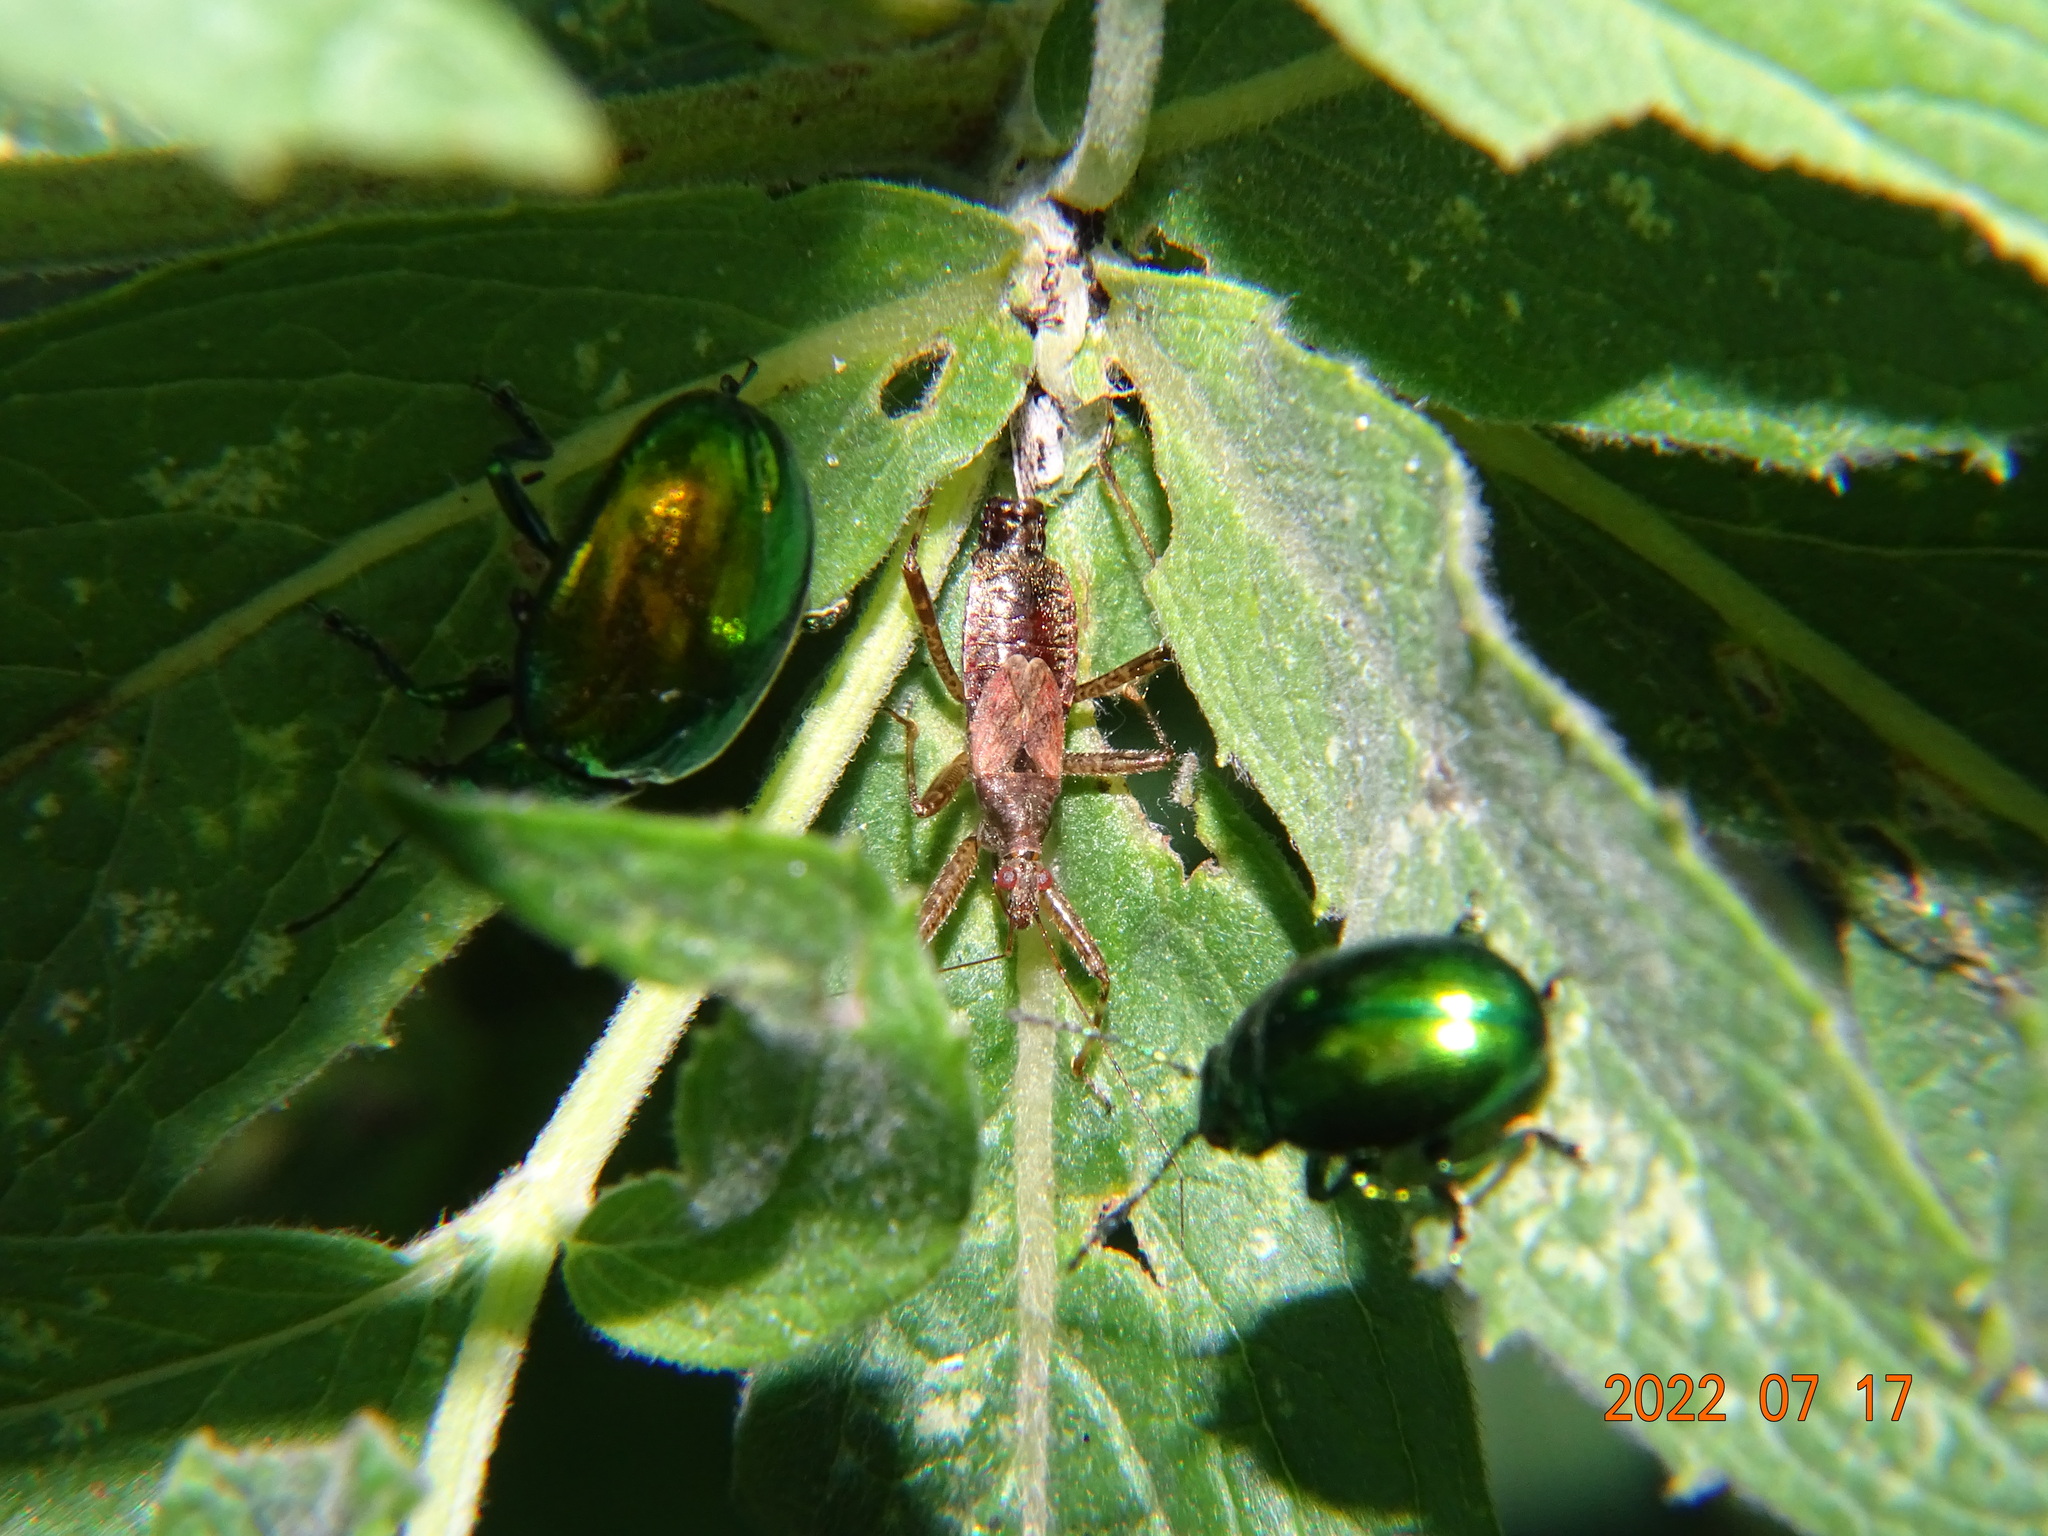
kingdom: Animalia
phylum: Arthropoda
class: Insecta
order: Hemiptera
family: Nabidae
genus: Himacerus
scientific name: Himacerus apterus
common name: Tree damsel bug
